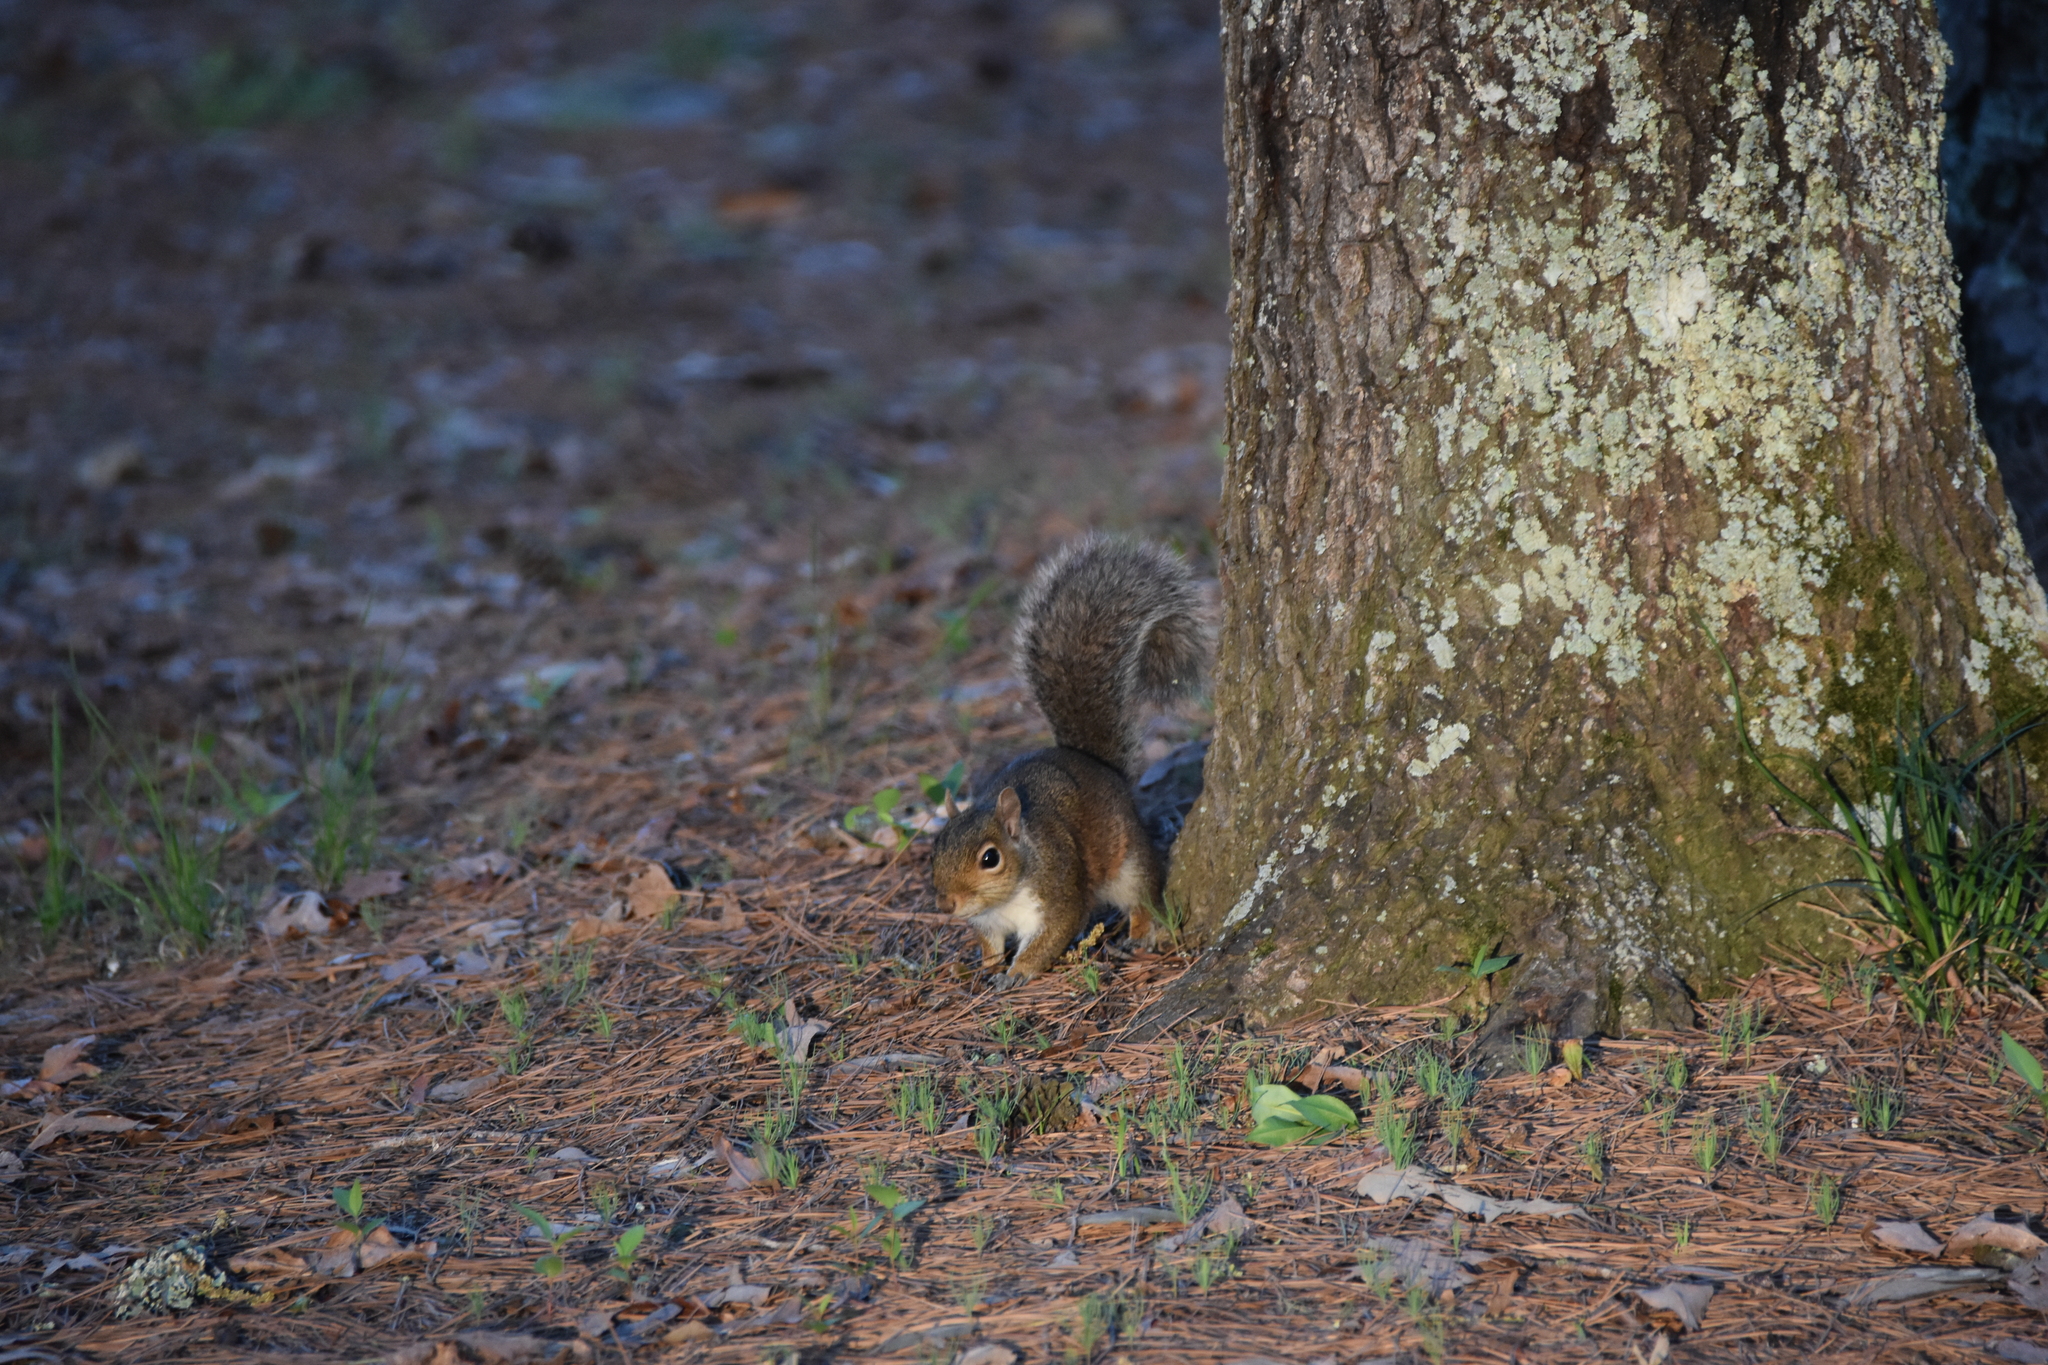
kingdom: Animalia
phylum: Chordata
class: Mammalia
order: Rodentia
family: Sciuridae
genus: Sciurus
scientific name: Sciurus carolinensis
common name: Eastern gray squirrel
